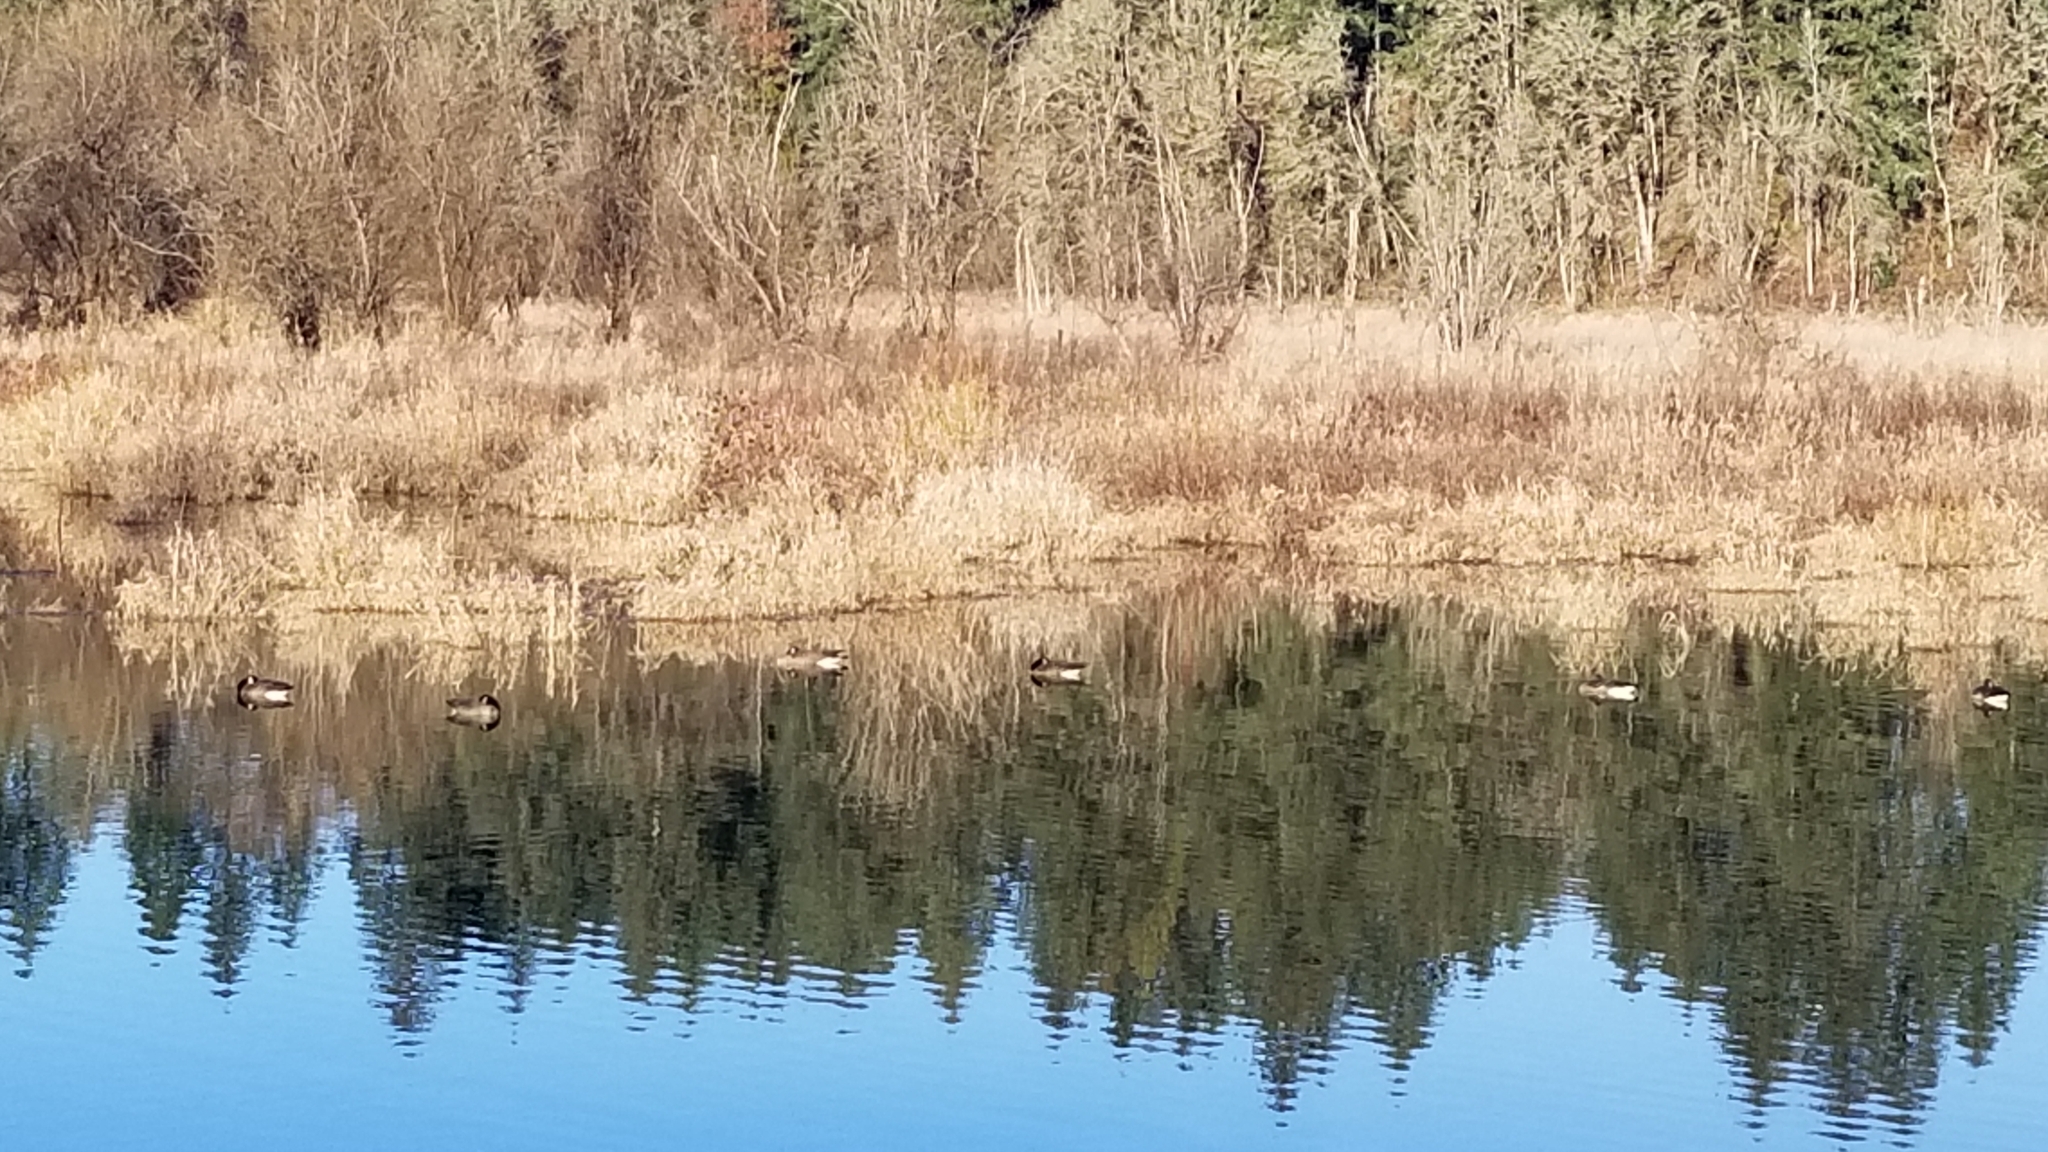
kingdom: Animalia
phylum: Chordata
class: Aves
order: Anseriformes
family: Anatidae
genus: Branta
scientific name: Branta canadensis
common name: Canada goose
